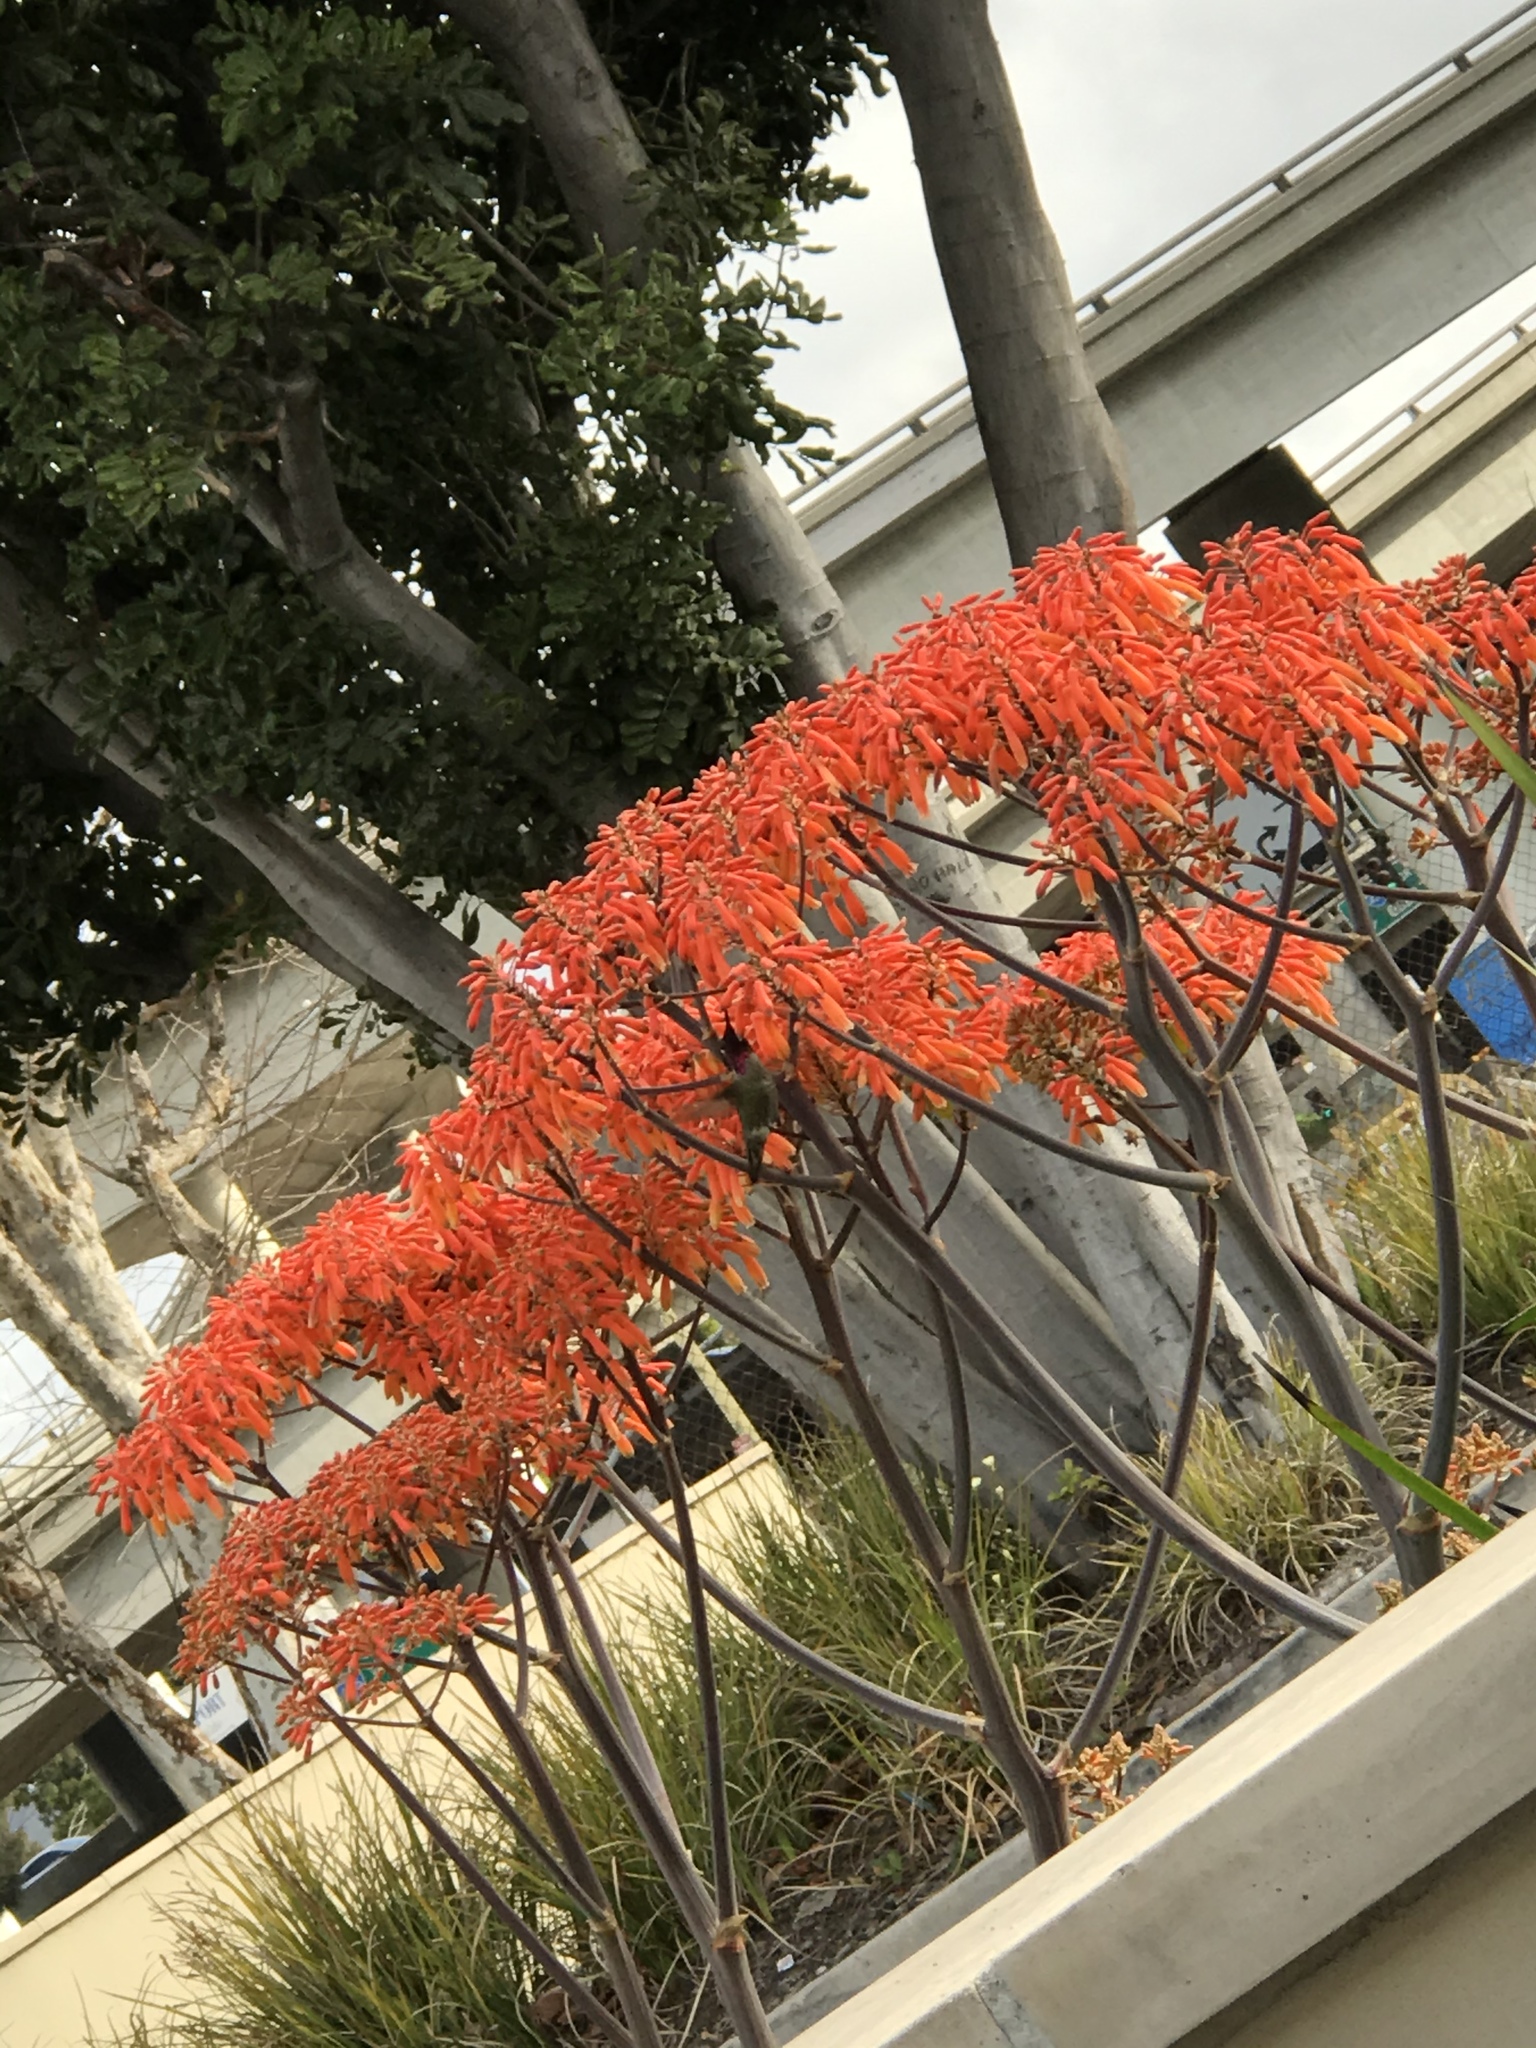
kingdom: Animalia
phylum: Chordata
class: Aves
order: Apodiformes
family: Trochilidae
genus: Calypte
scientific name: Calypte anna
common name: Anna's hummingbird
